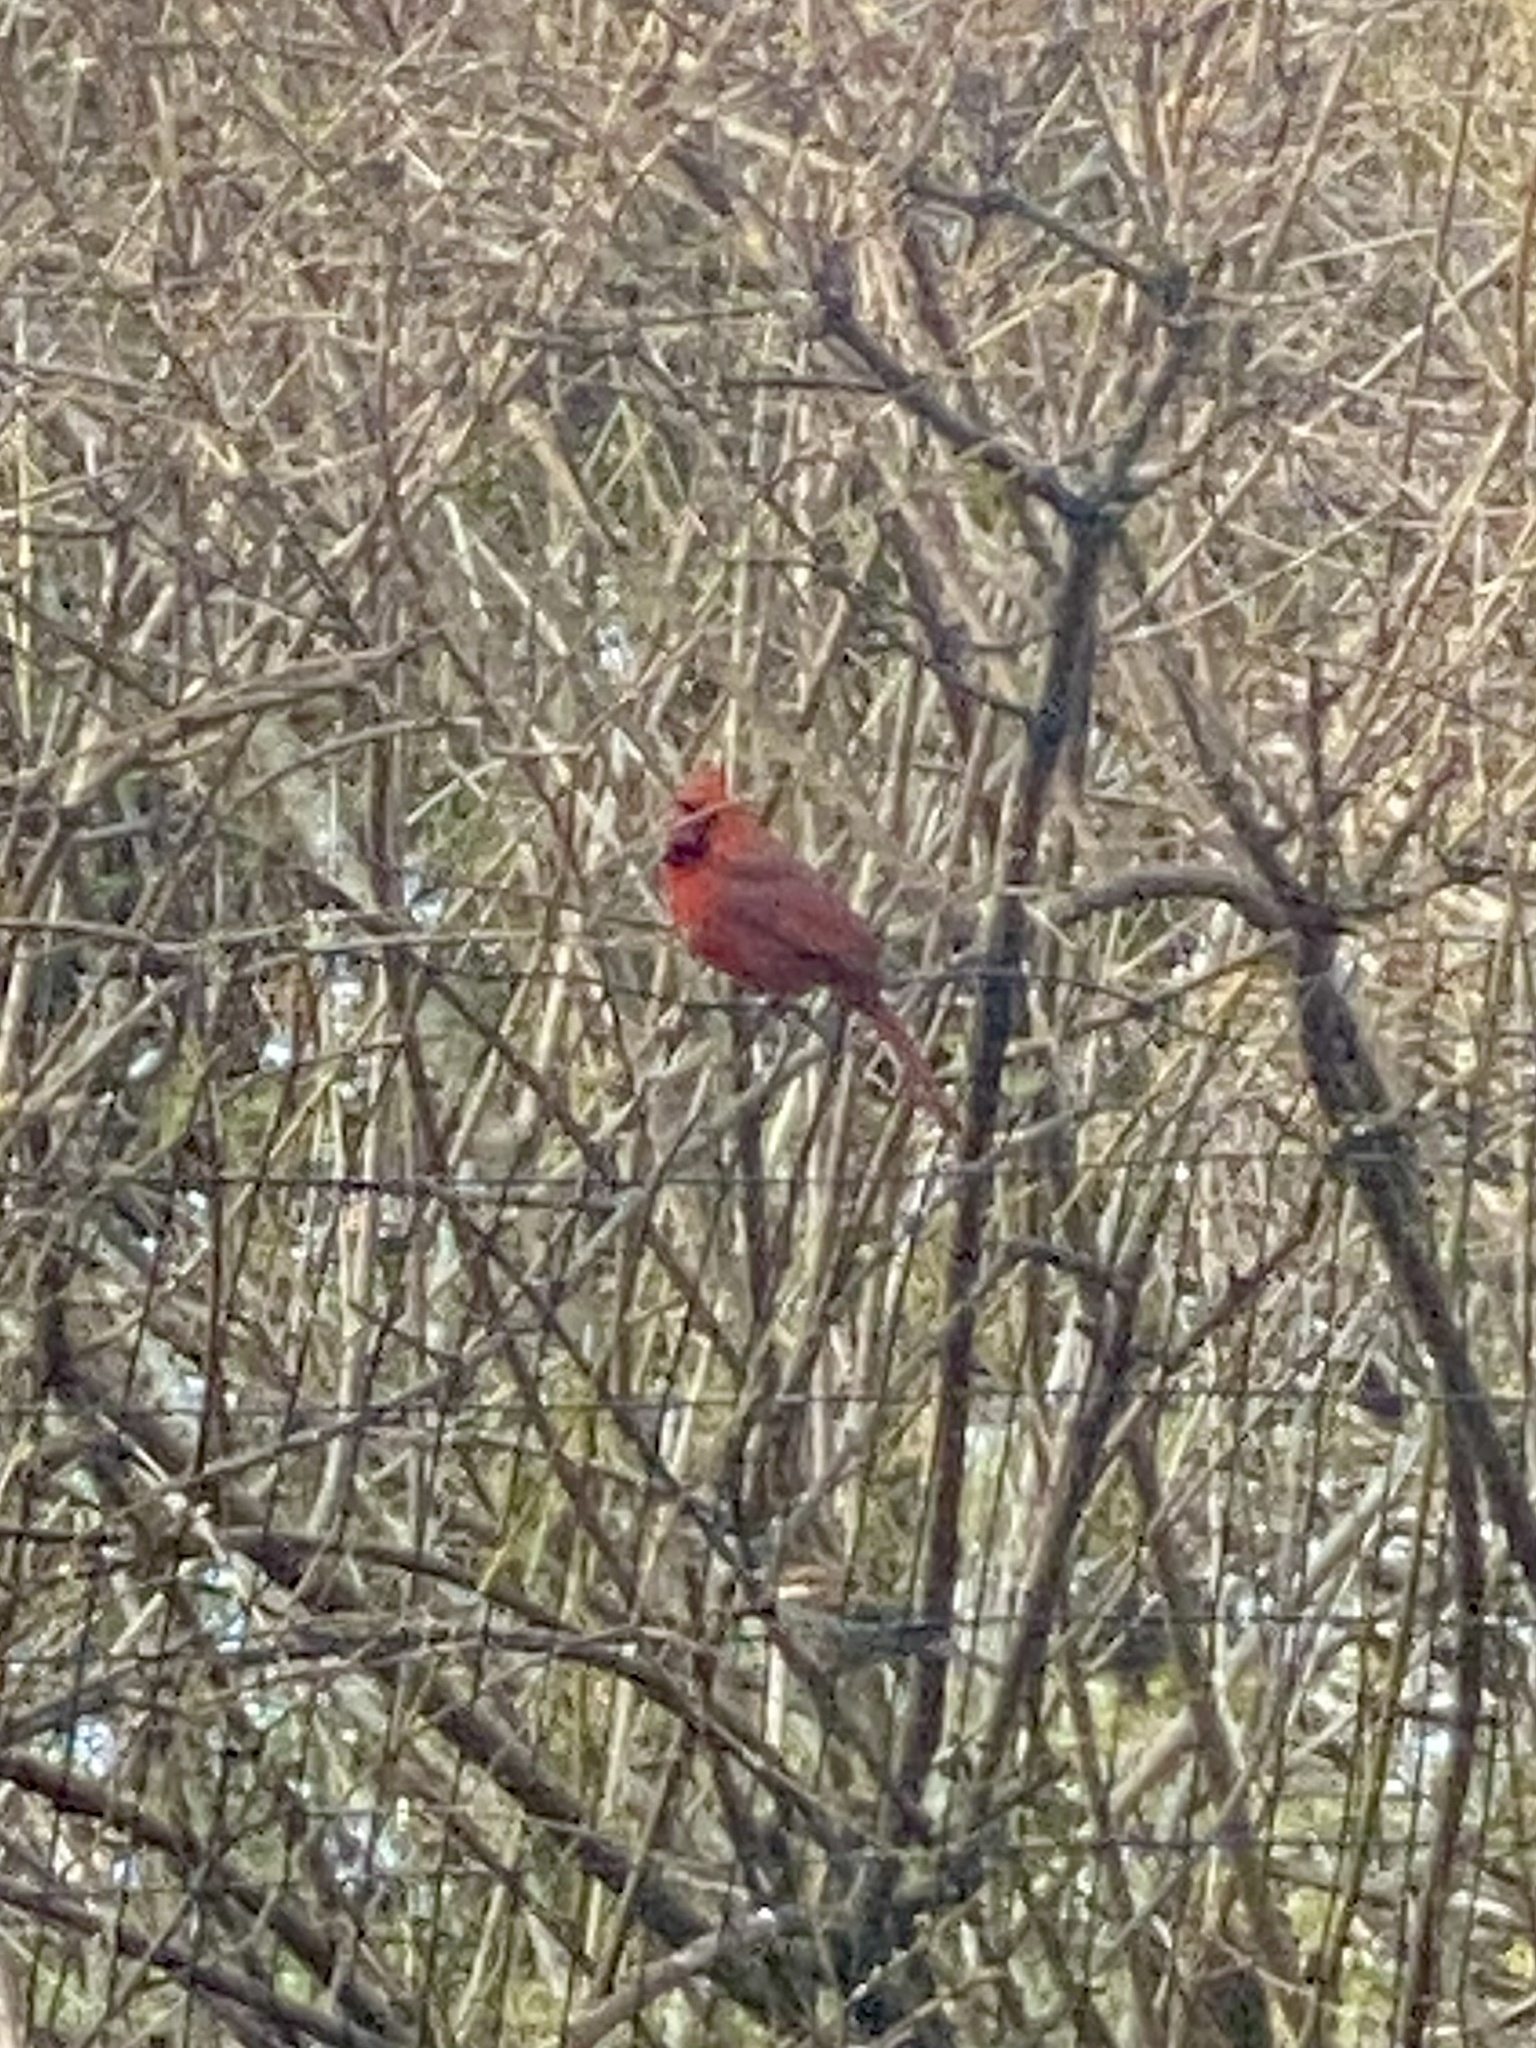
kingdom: Animalia
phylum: Chordata
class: Aves
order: Passeriformes
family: Cardinalidae
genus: Cardinalis
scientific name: Cardinalis cardinalis
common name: Northern cardinal
